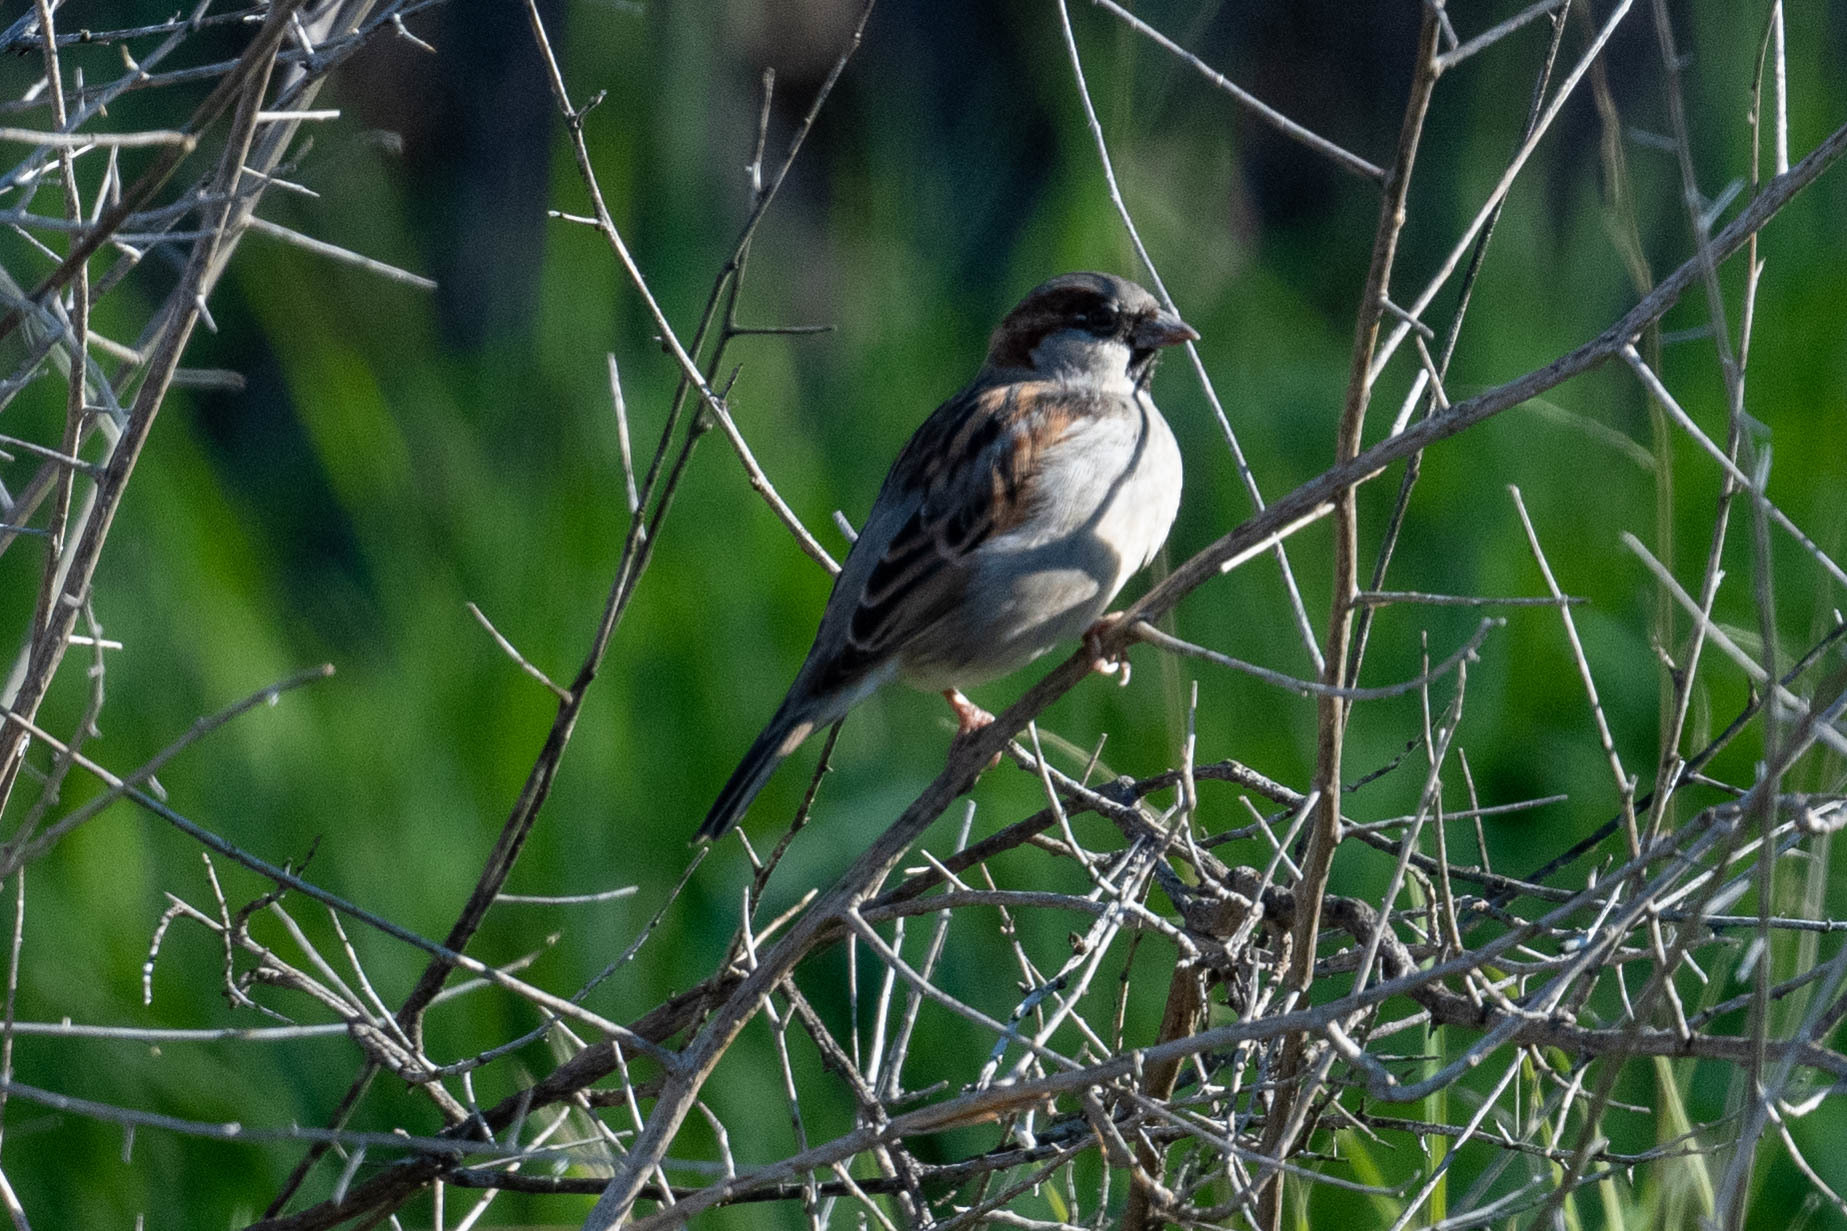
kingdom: Animalia
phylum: Chordata
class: Aves
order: Passeriformes
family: Passeridae
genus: Passer
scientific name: Passer domesticus
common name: House sparrow
